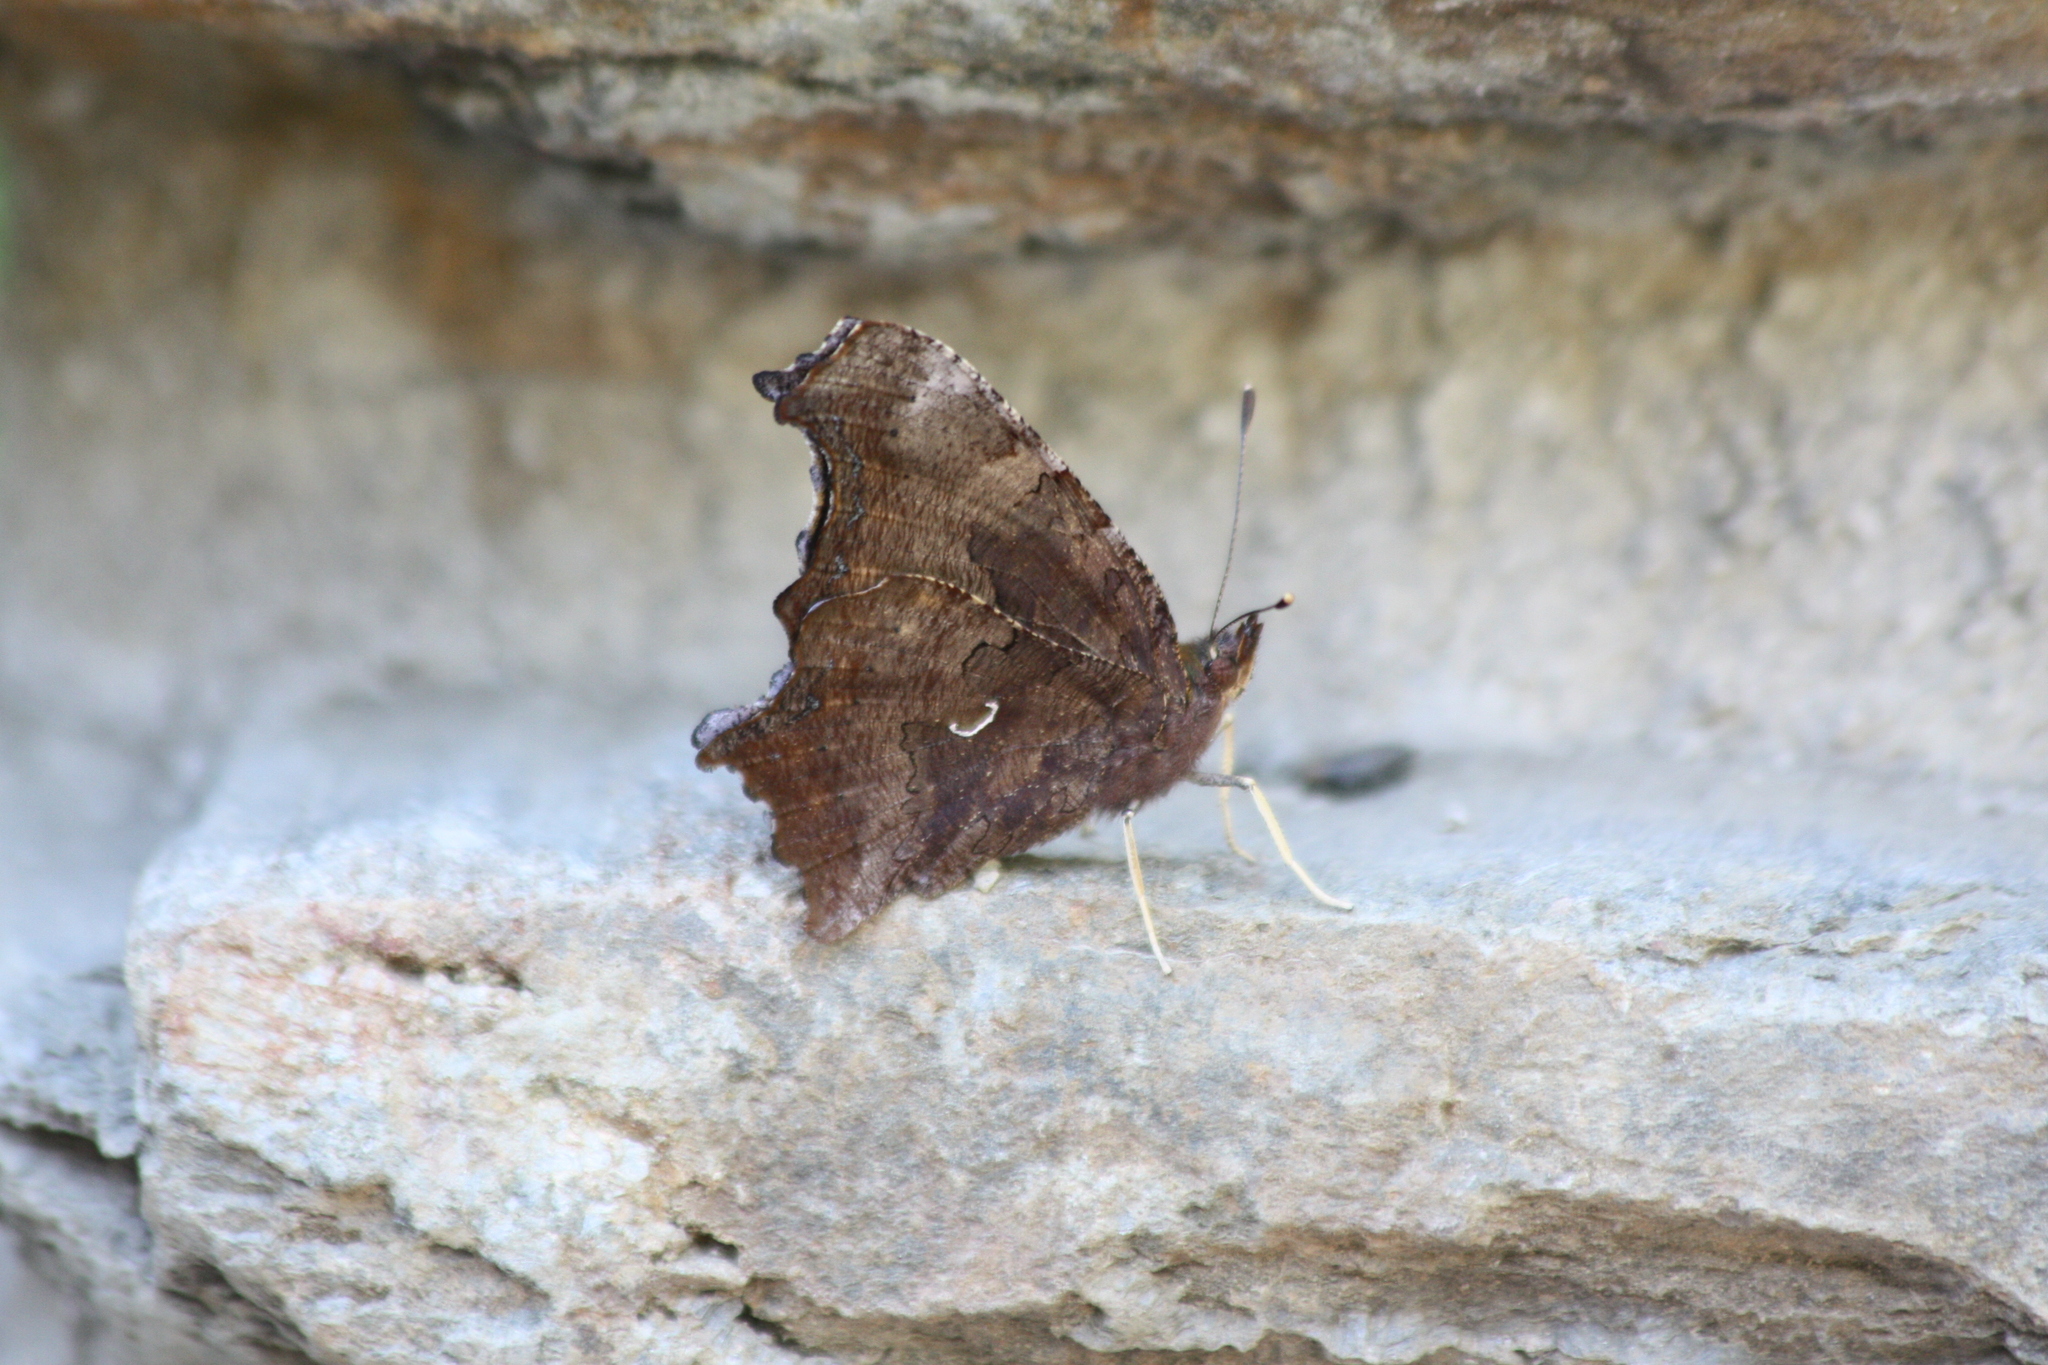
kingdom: Animalia
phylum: Arthropoda
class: Insecta
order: Lepidoptera
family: Nymphalidae
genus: Polygonia
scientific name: Polygonia comma
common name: Eastern comma
